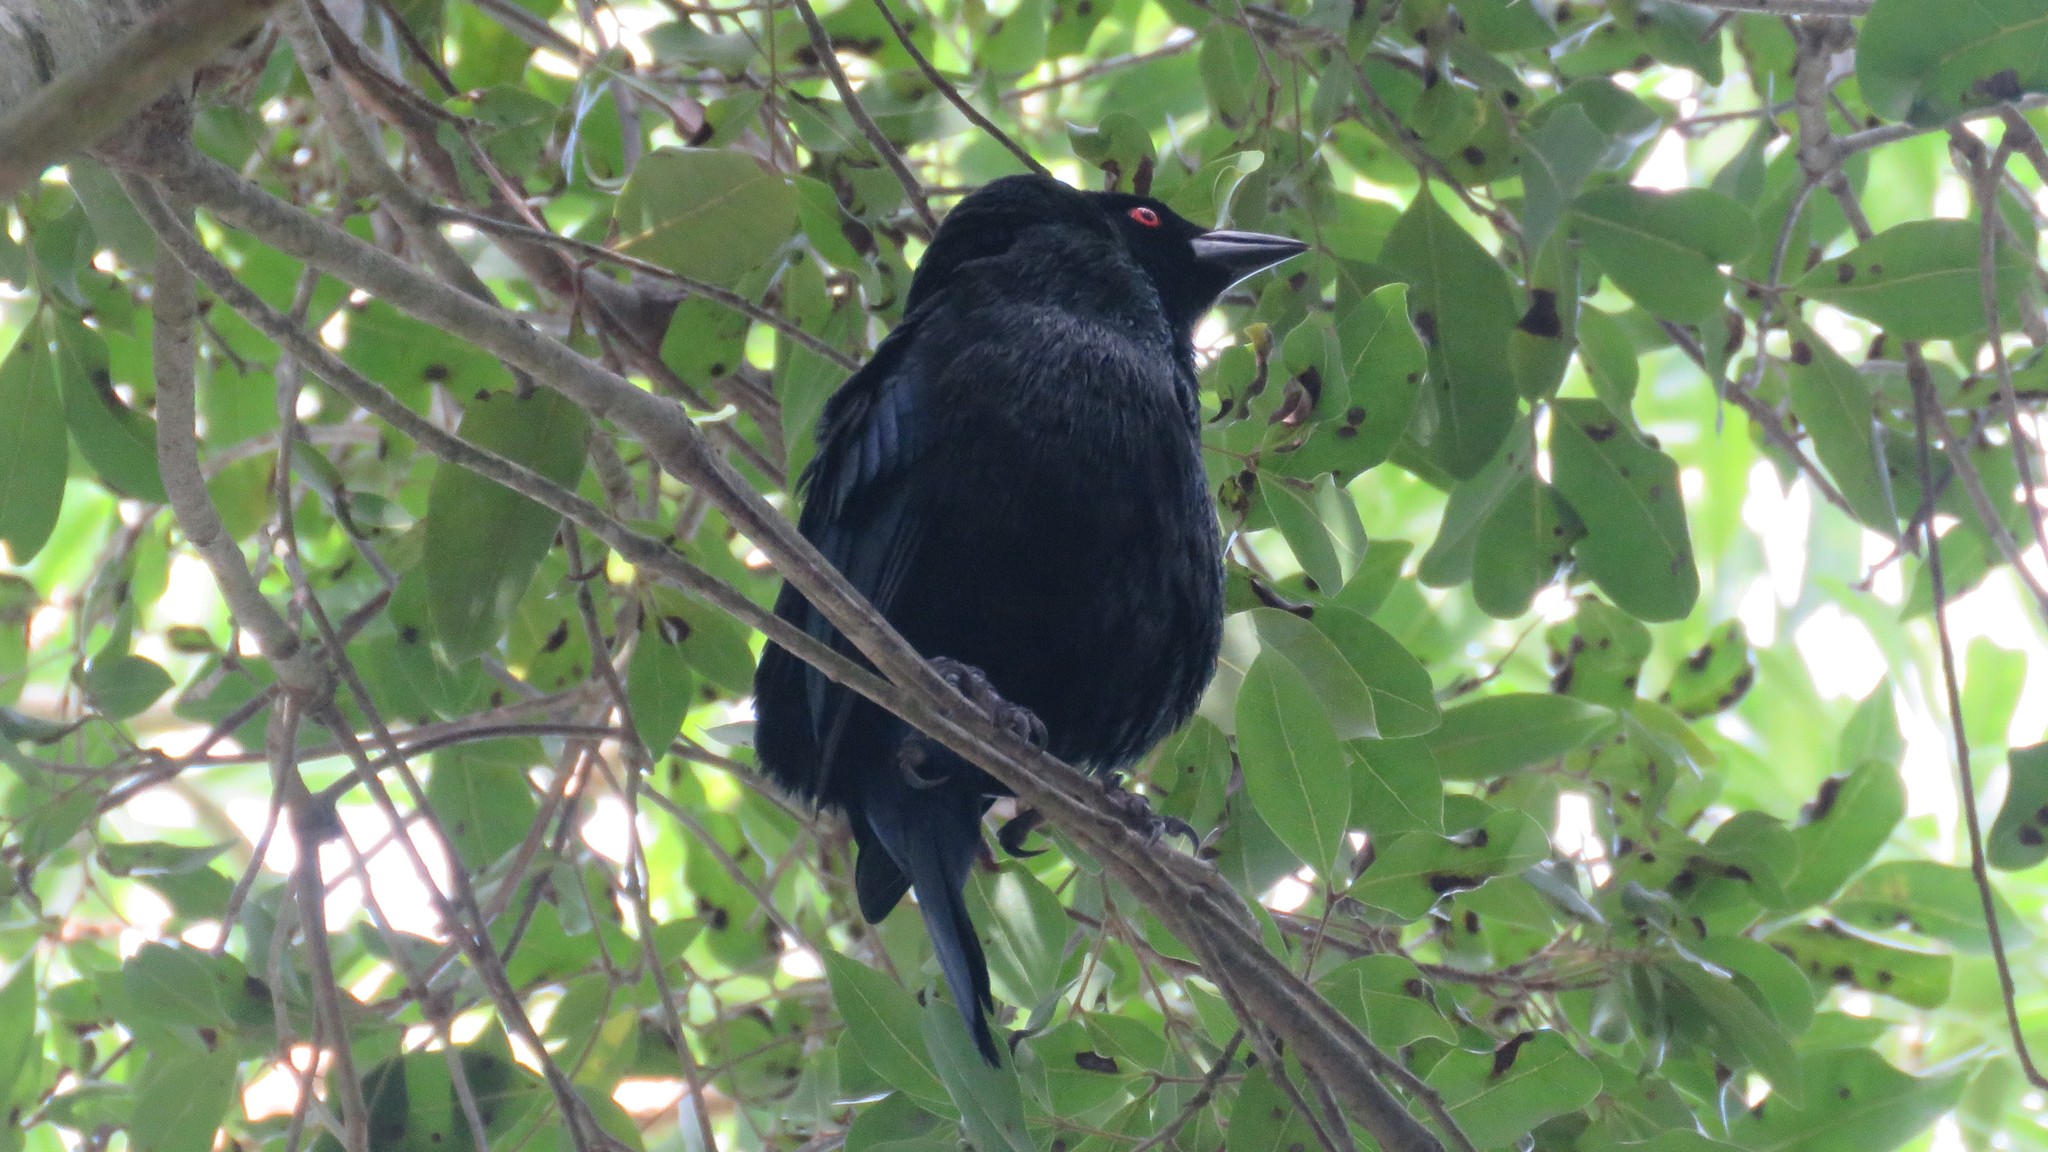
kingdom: Animalia
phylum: Chordata
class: Aves
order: Passeriformes
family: Icteridae
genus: Molothrus
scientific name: Molothrus aeneus
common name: Bronzed cowbird
